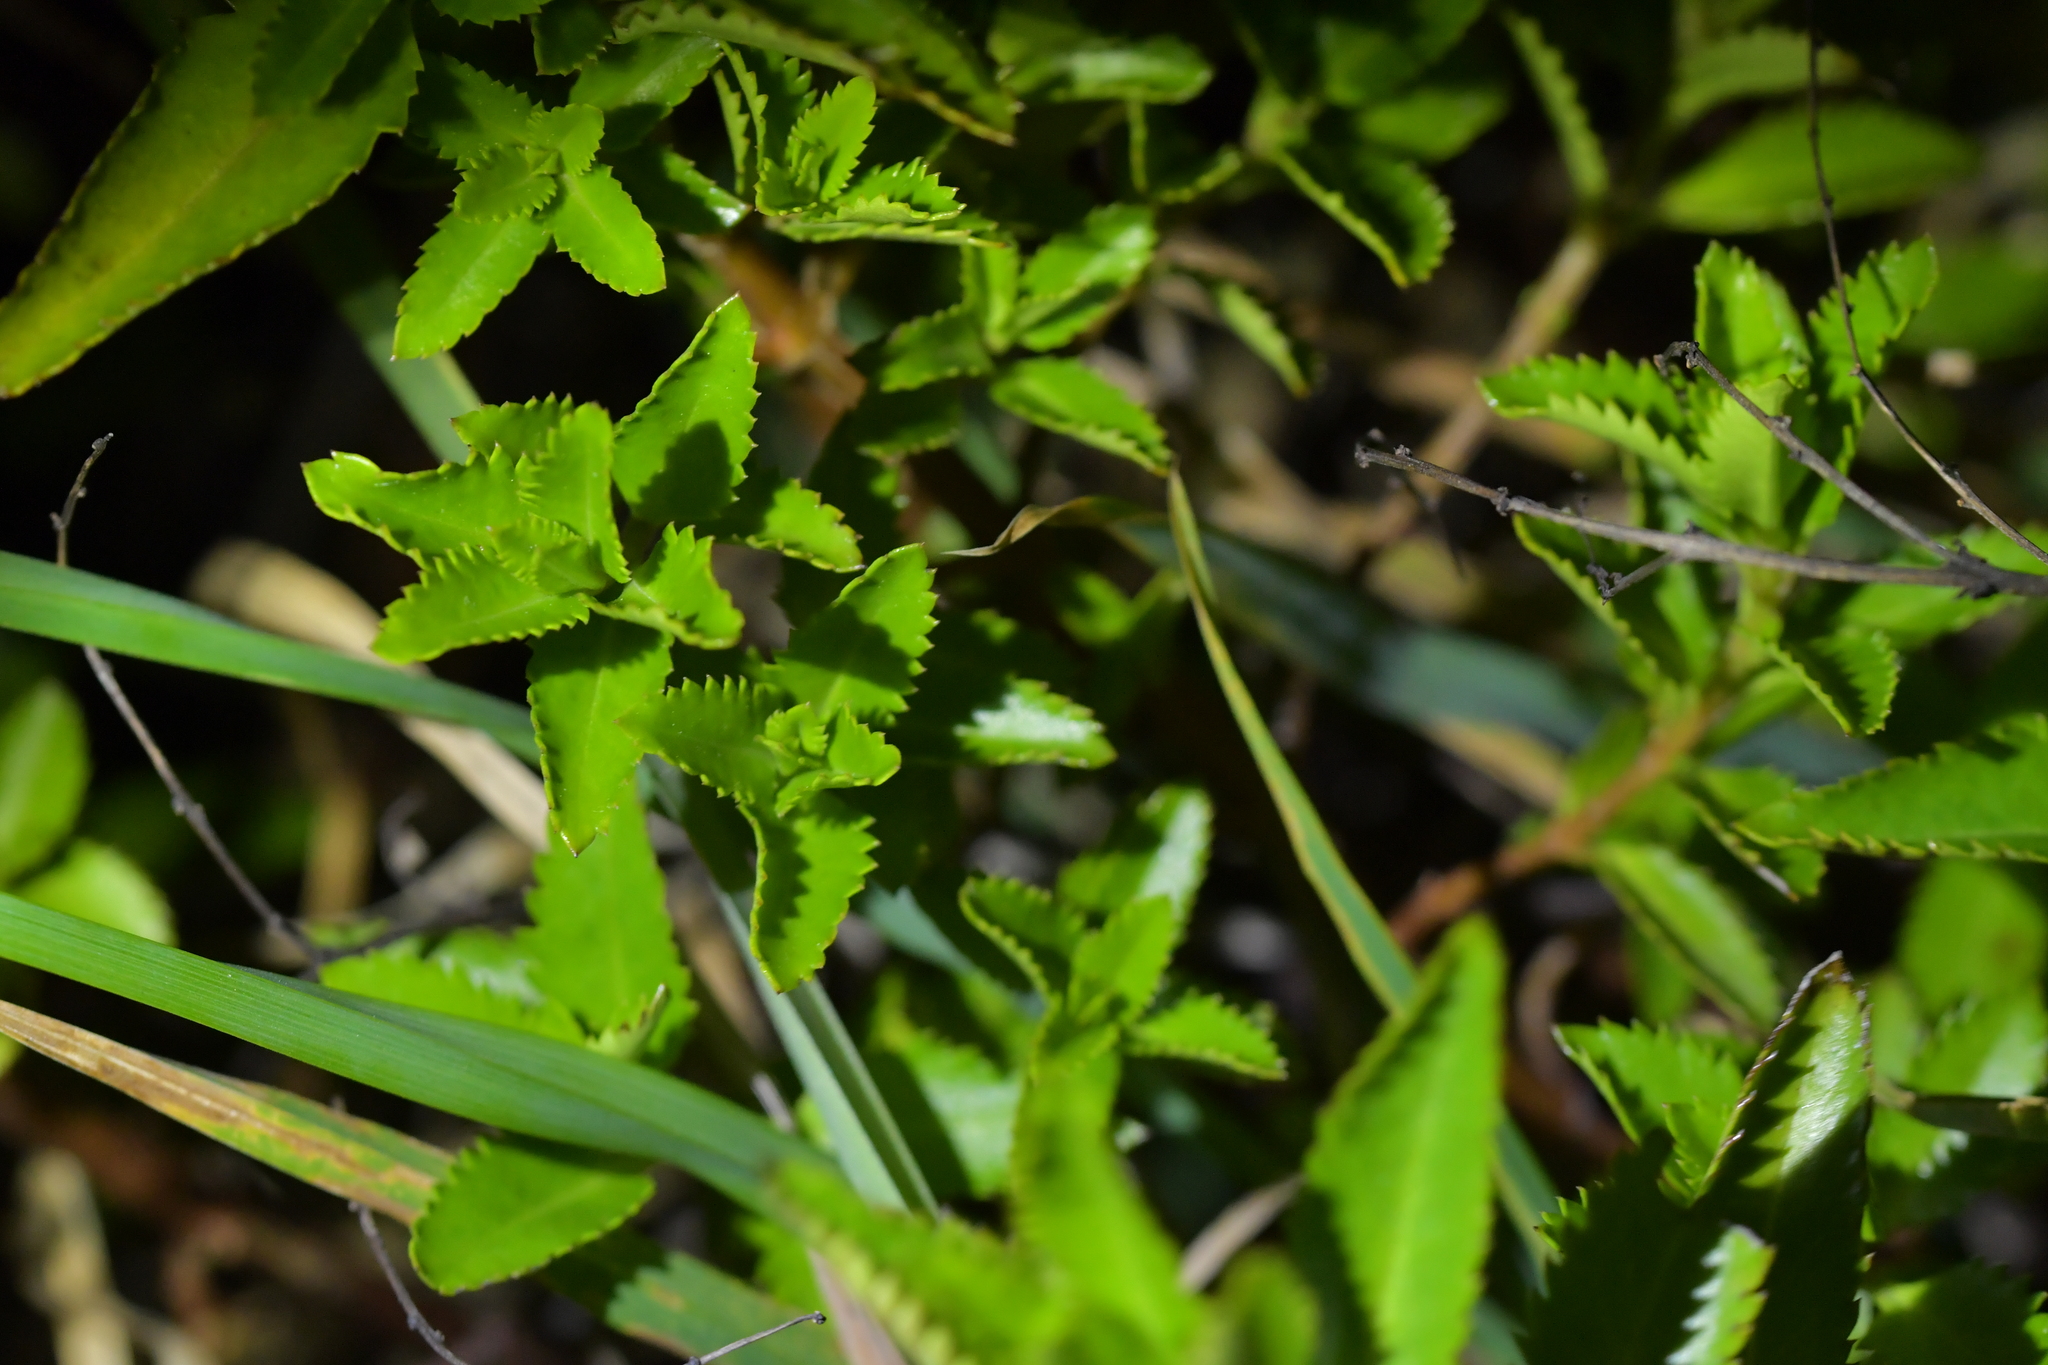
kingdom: Plantae
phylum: Tracheophyta
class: Magnoliopsida
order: Saxifragales
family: Haloragaceae
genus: Haloragis
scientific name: Haloragis erecta
